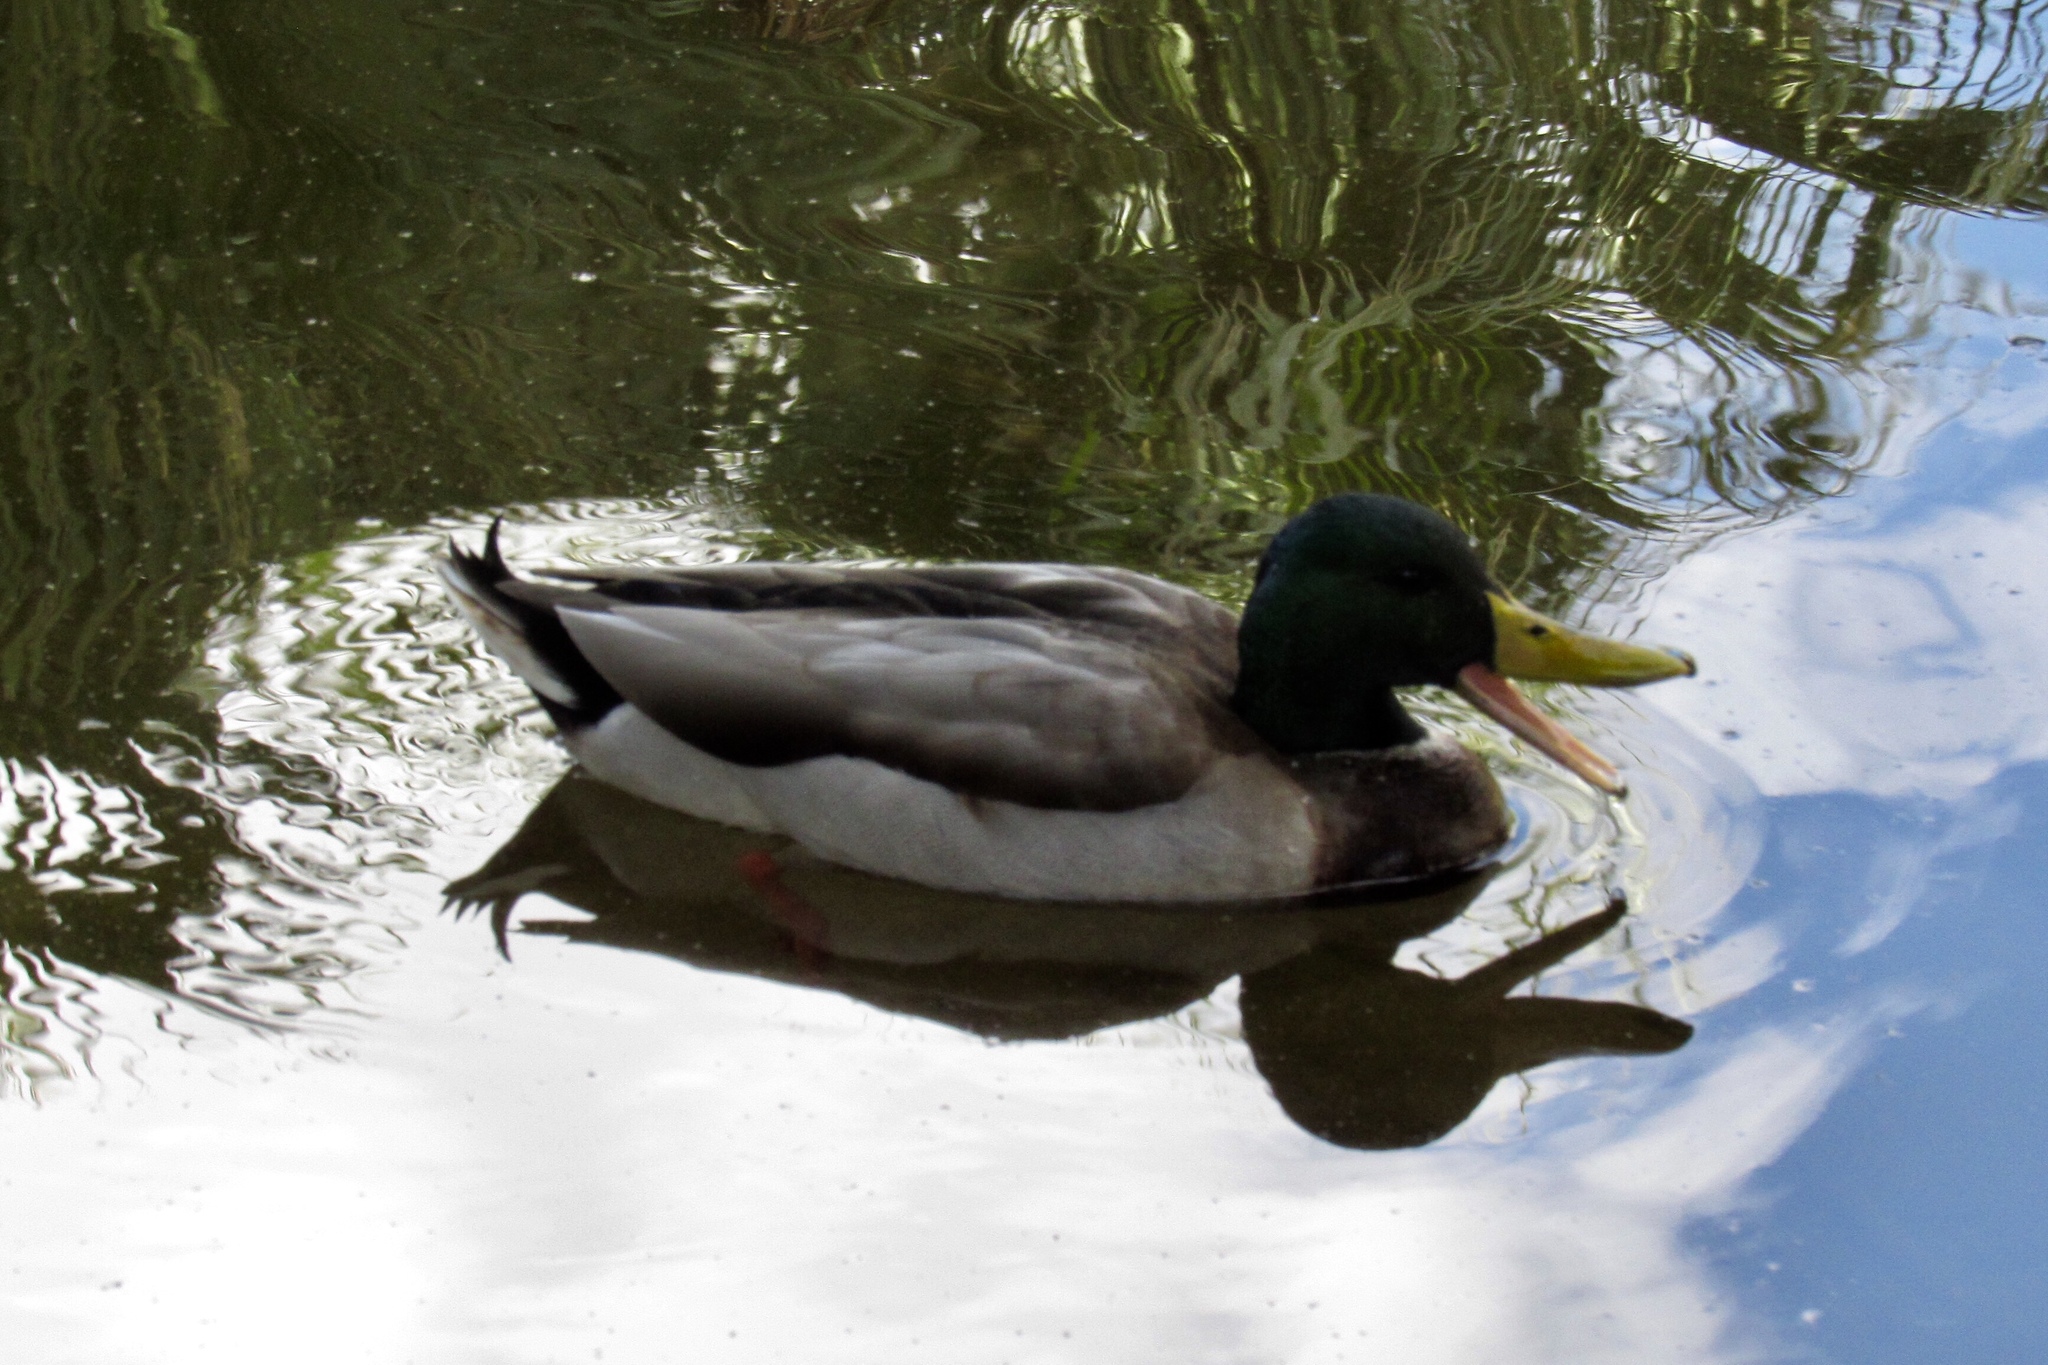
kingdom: Animalia
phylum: Chordata
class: Aves
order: Anseriformes
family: Anatidae
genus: Anas
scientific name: Anas platyrhynchos
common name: Mallard
